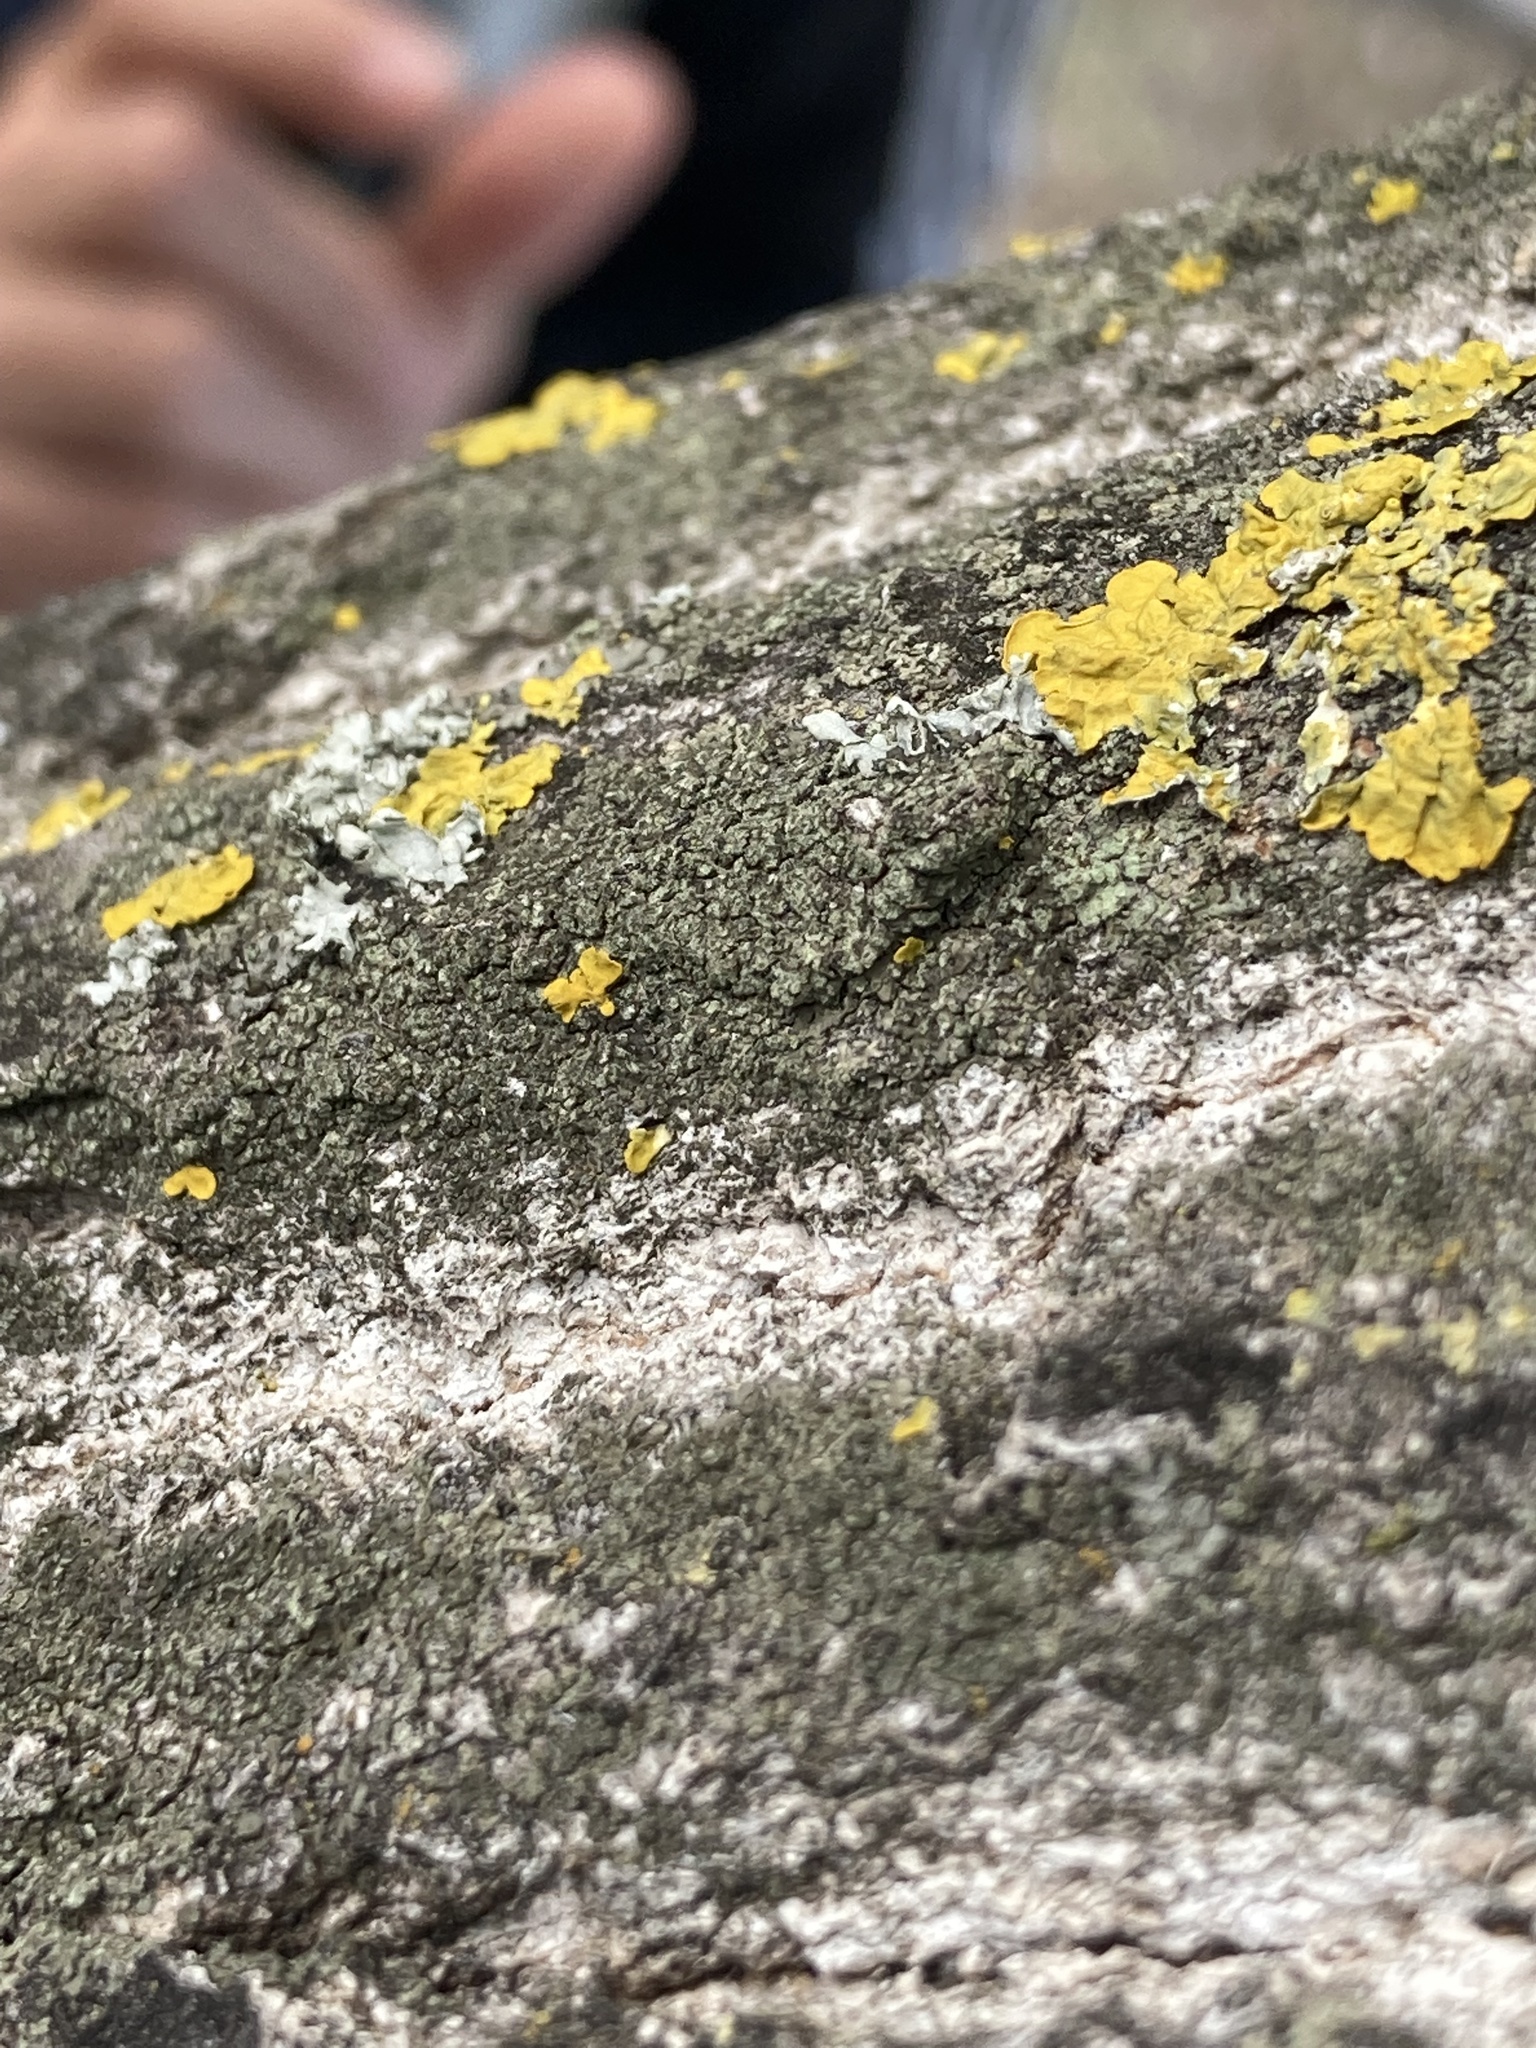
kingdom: Fungi
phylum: Ascomycota
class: Lecanoromycetes
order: Caliciales
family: Physciaceae
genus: Hyperphyscia
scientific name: Hyperphyscia adglutinata
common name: Grainy shadow-crust lichen
